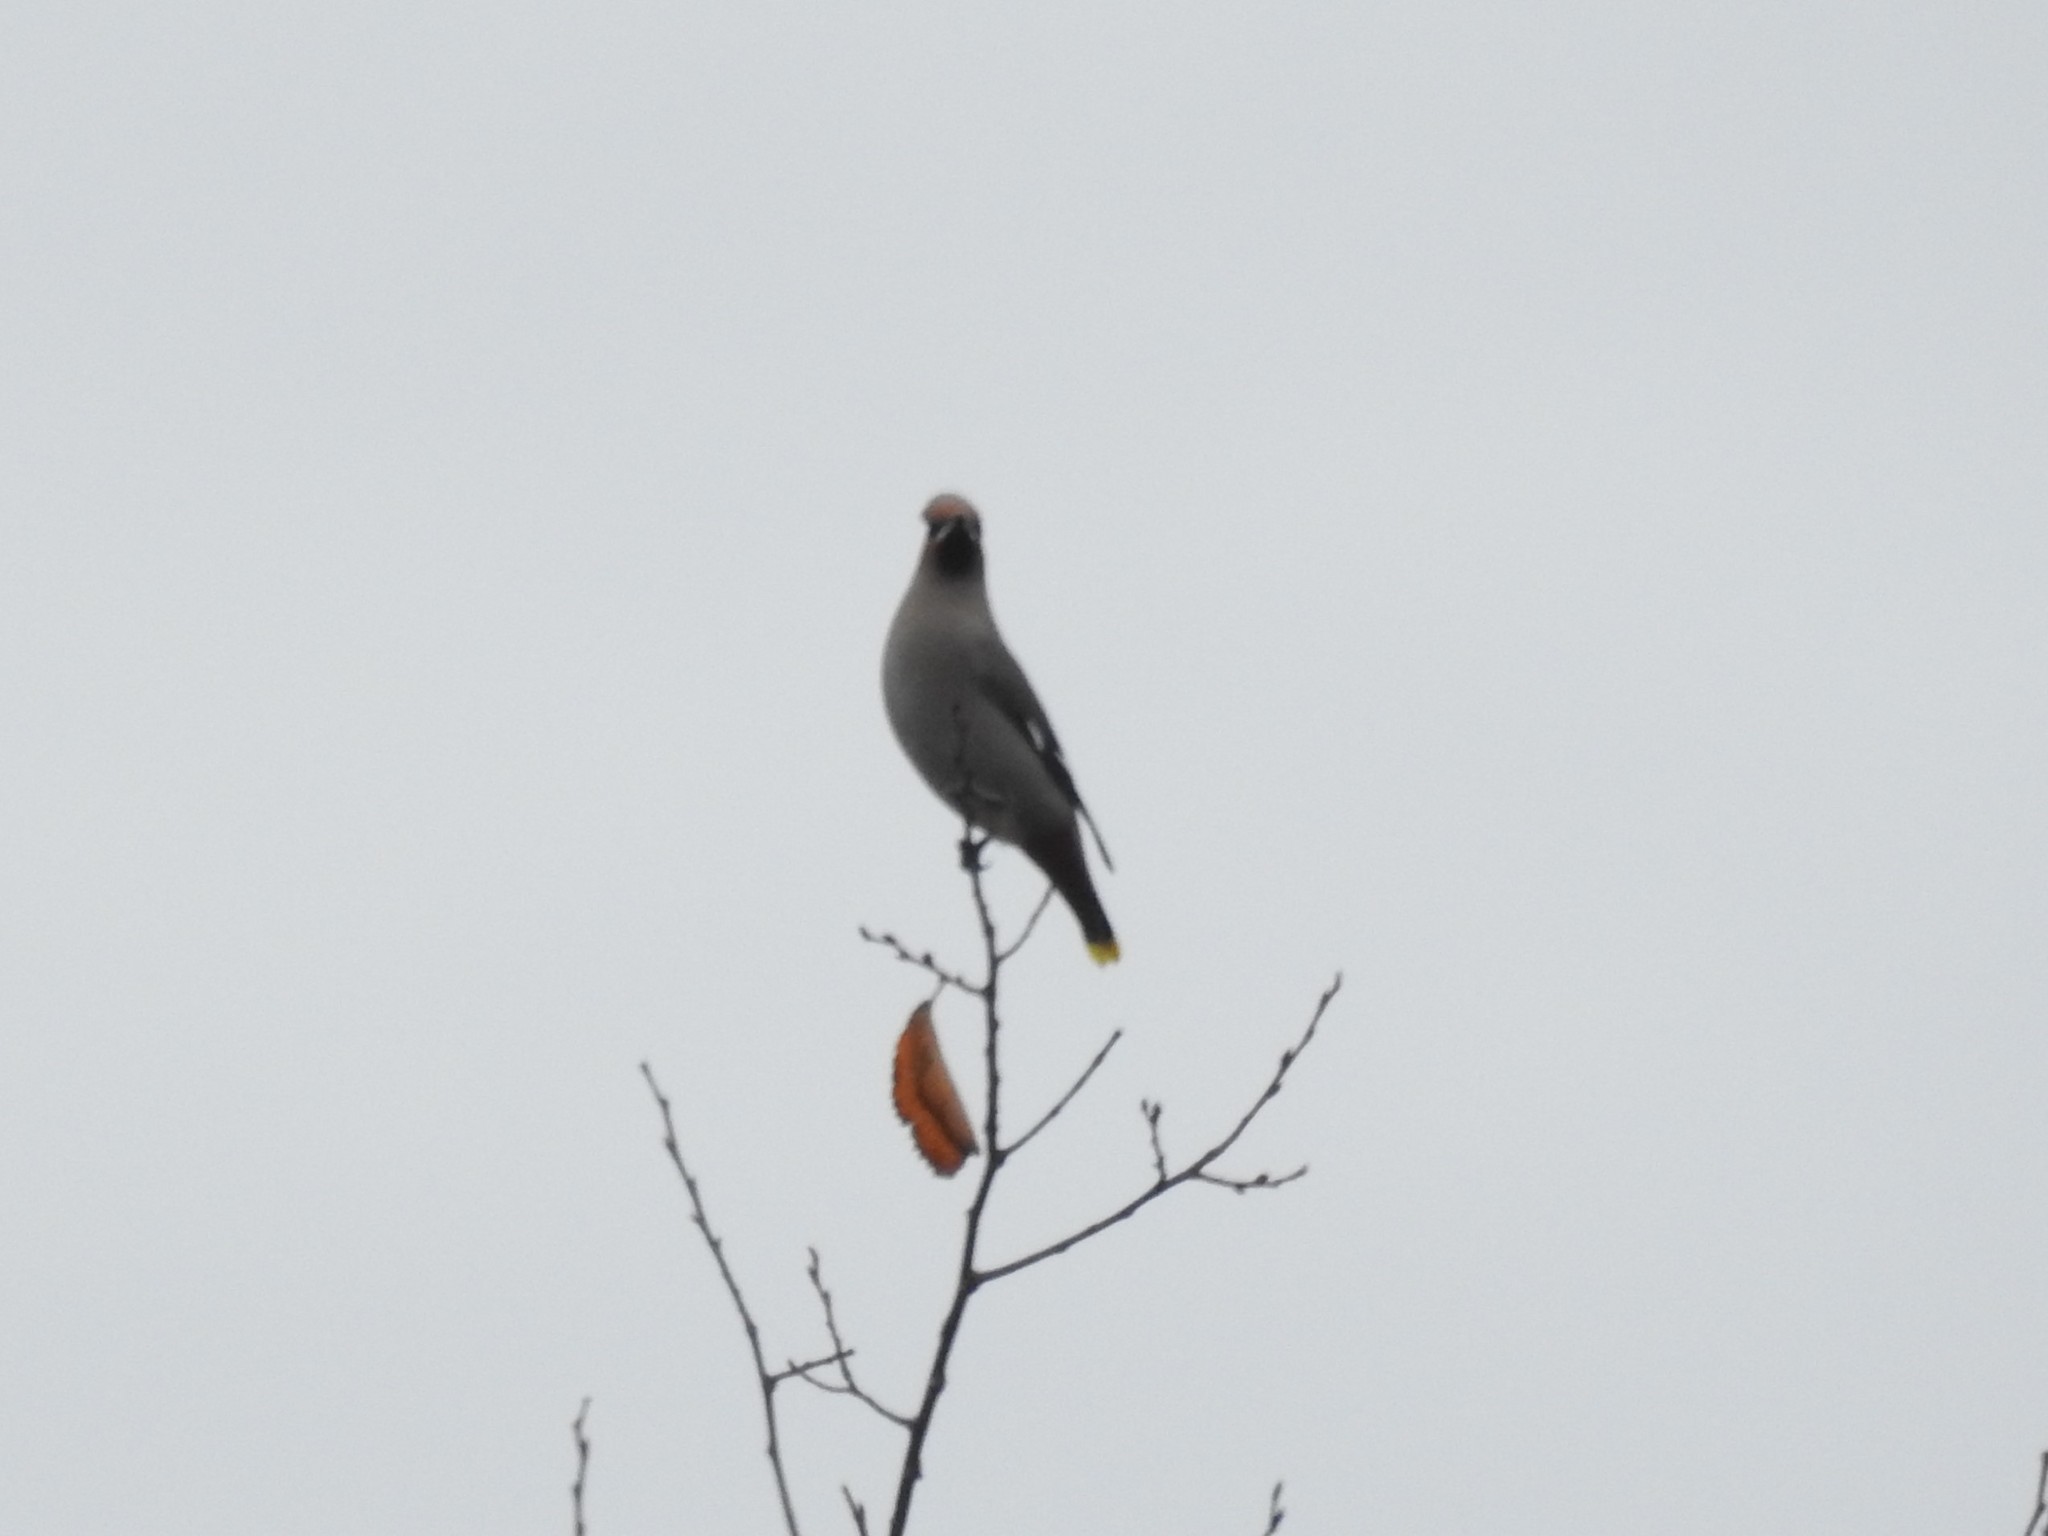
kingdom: Animalia
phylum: Chordata
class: Aves
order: Passeriformes
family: Bombycillidae
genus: Bombycilla
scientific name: Bombycilla garrulus
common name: Bohemian waxwing
